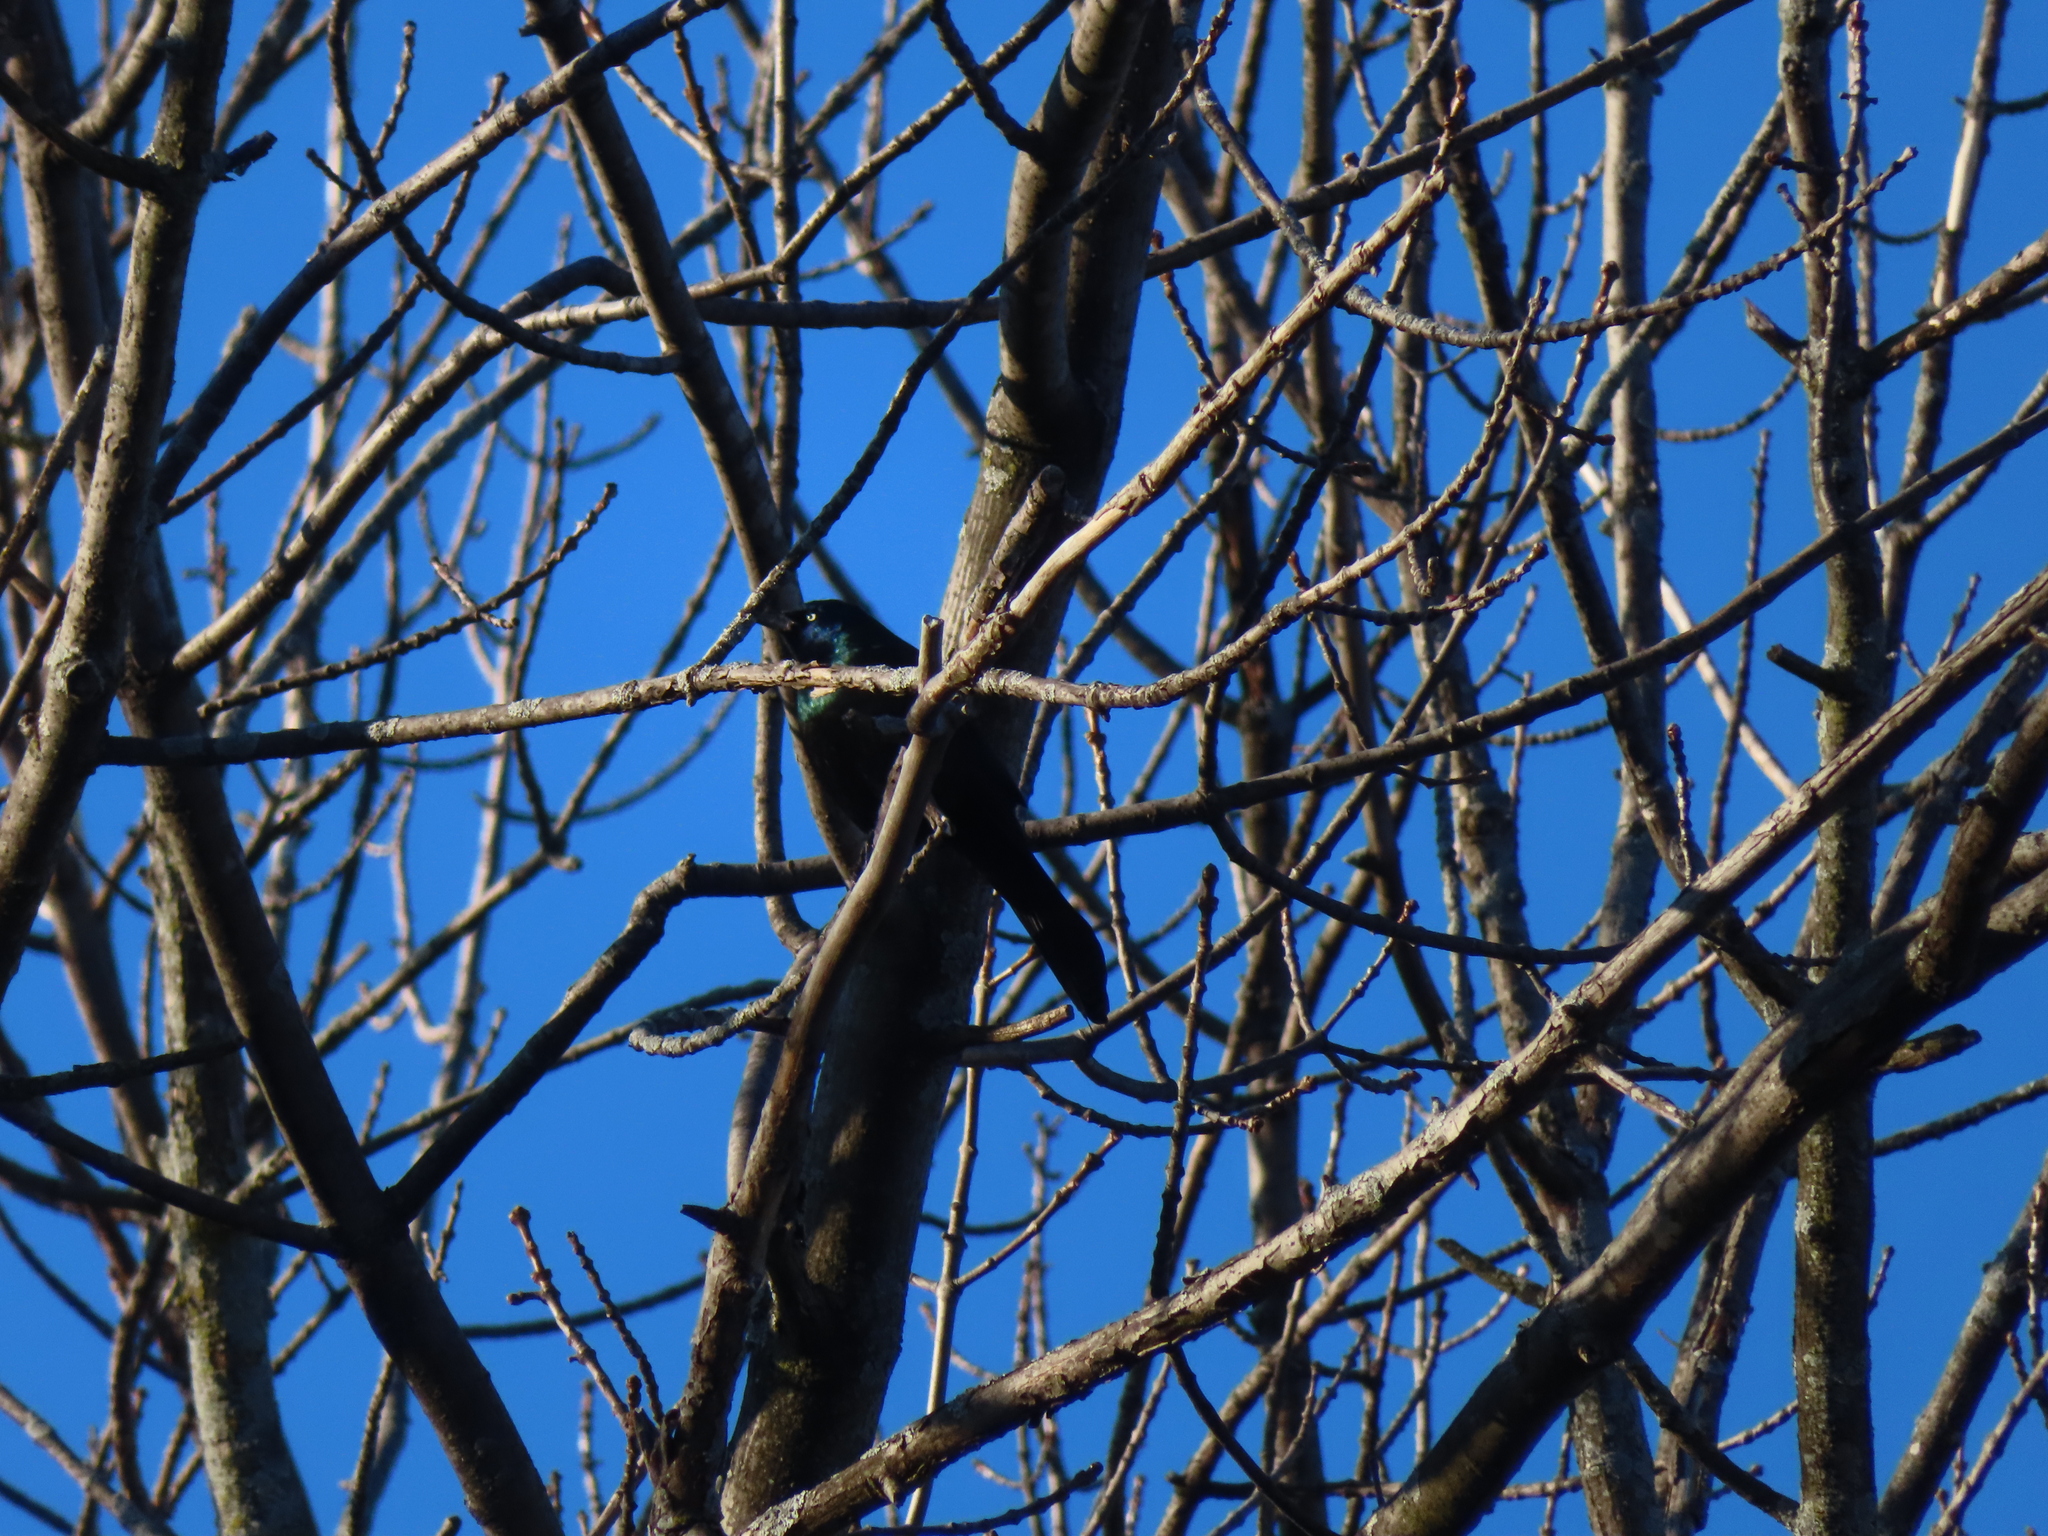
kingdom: Animalia
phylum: Chordata
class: Aves
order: Passeriformes
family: Icteridae
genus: Quiscalus
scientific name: Quiscalus quiscula
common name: Common grackle
